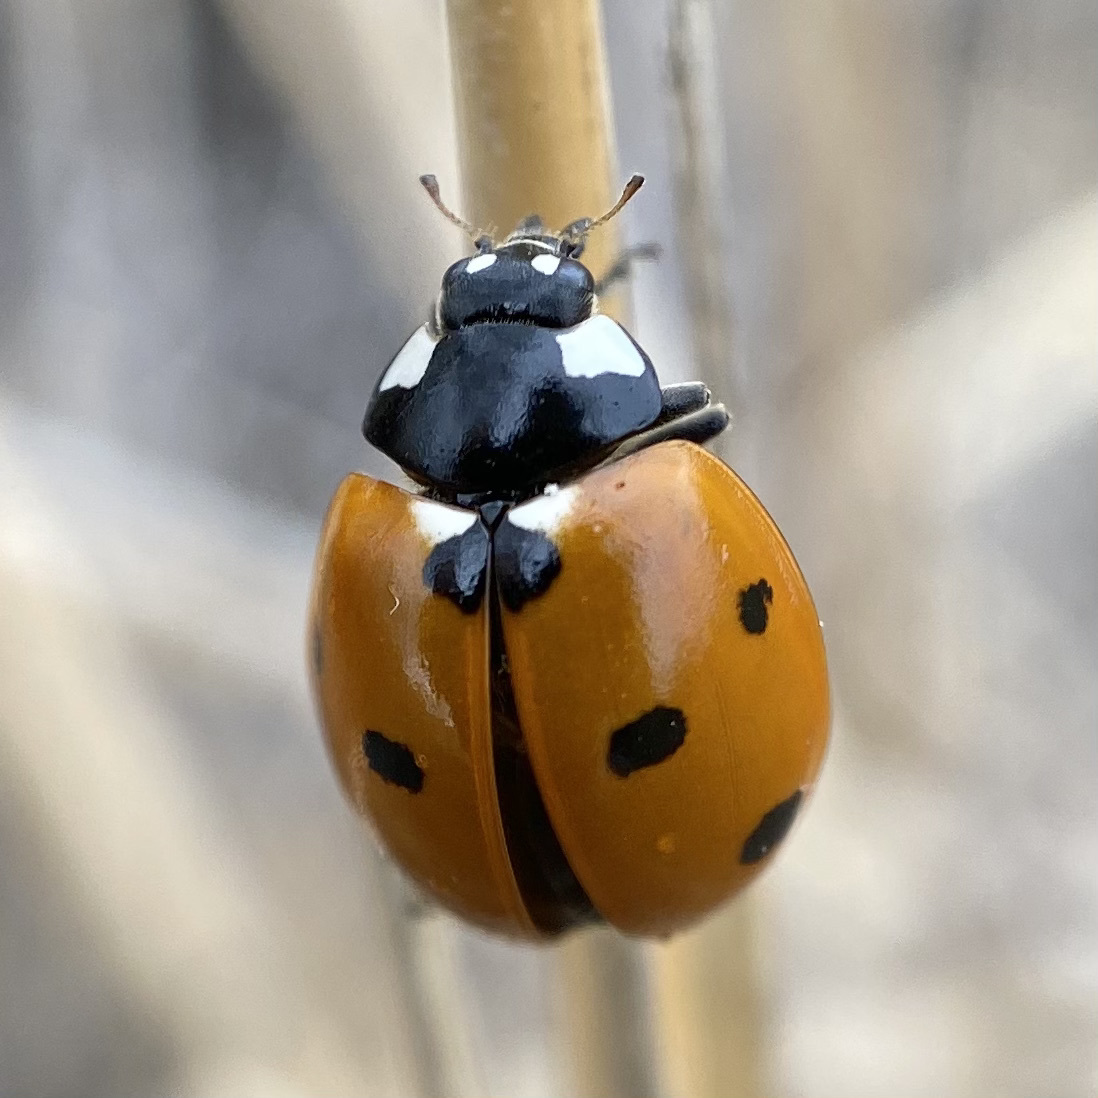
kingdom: Animalia
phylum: Arthropoda
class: Insecta
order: Coleoptera
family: Coccinellidae
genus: Coccinella
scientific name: Coccinella septempunctata
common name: Sevenspotted lady beetle
